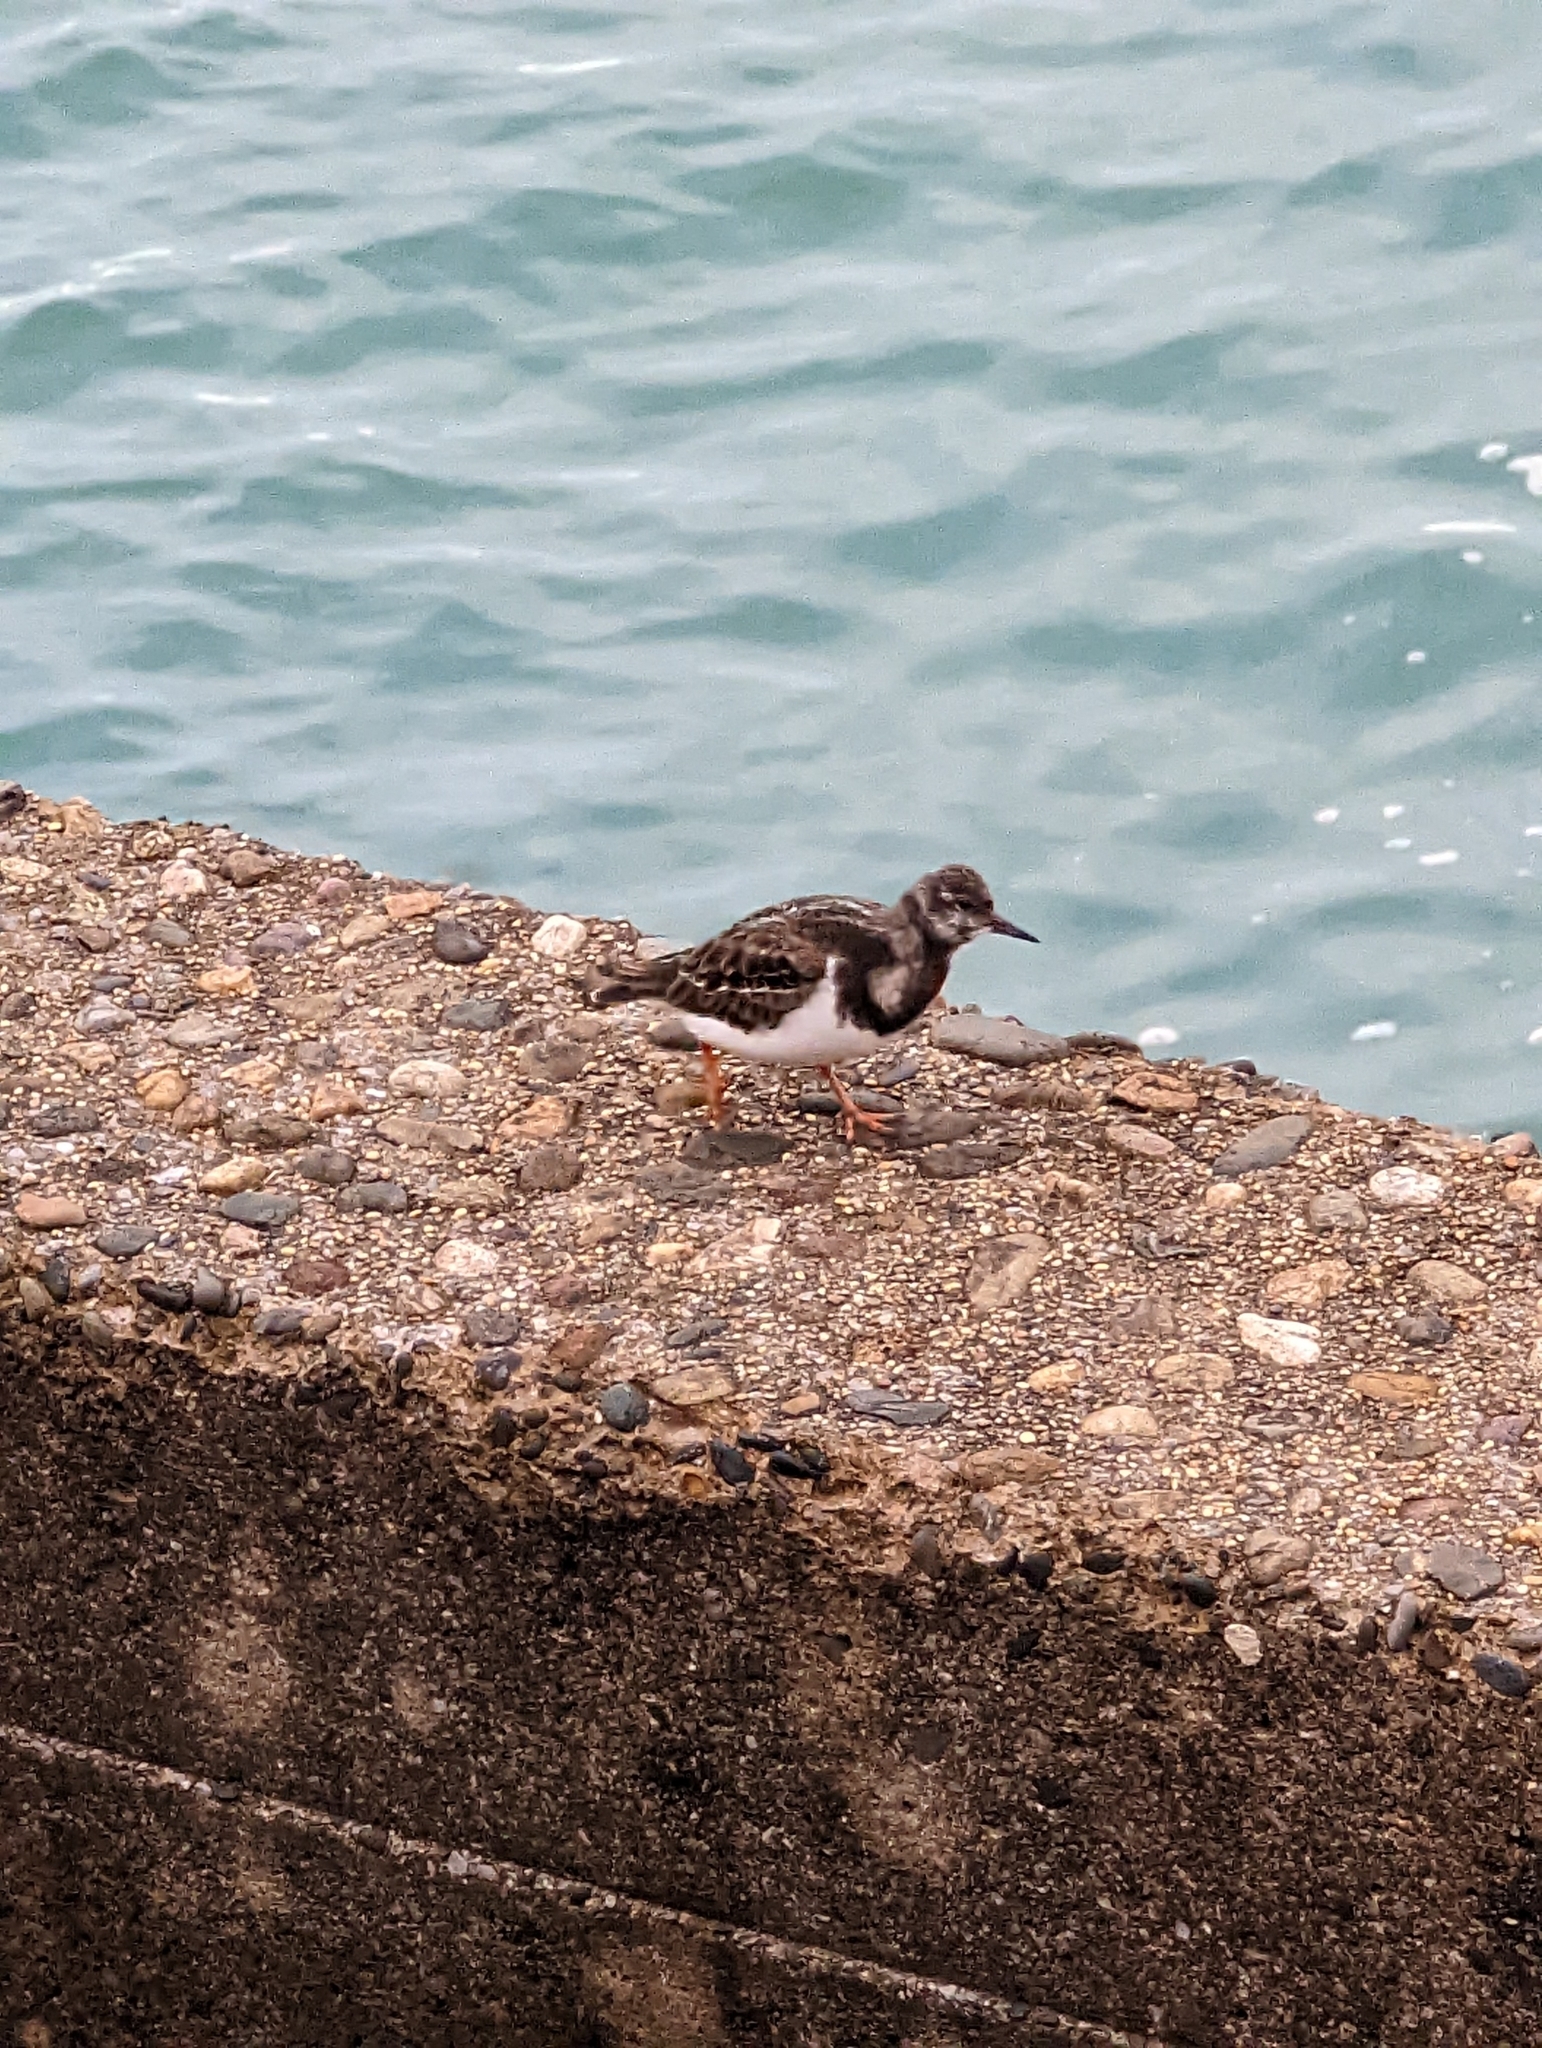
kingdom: Animalia
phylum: Chordata
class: Aves
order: Charadriiformes
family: Scolopacidae
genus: Arenaria
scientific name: Arenaria interpres
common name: Ruddy turnstone
